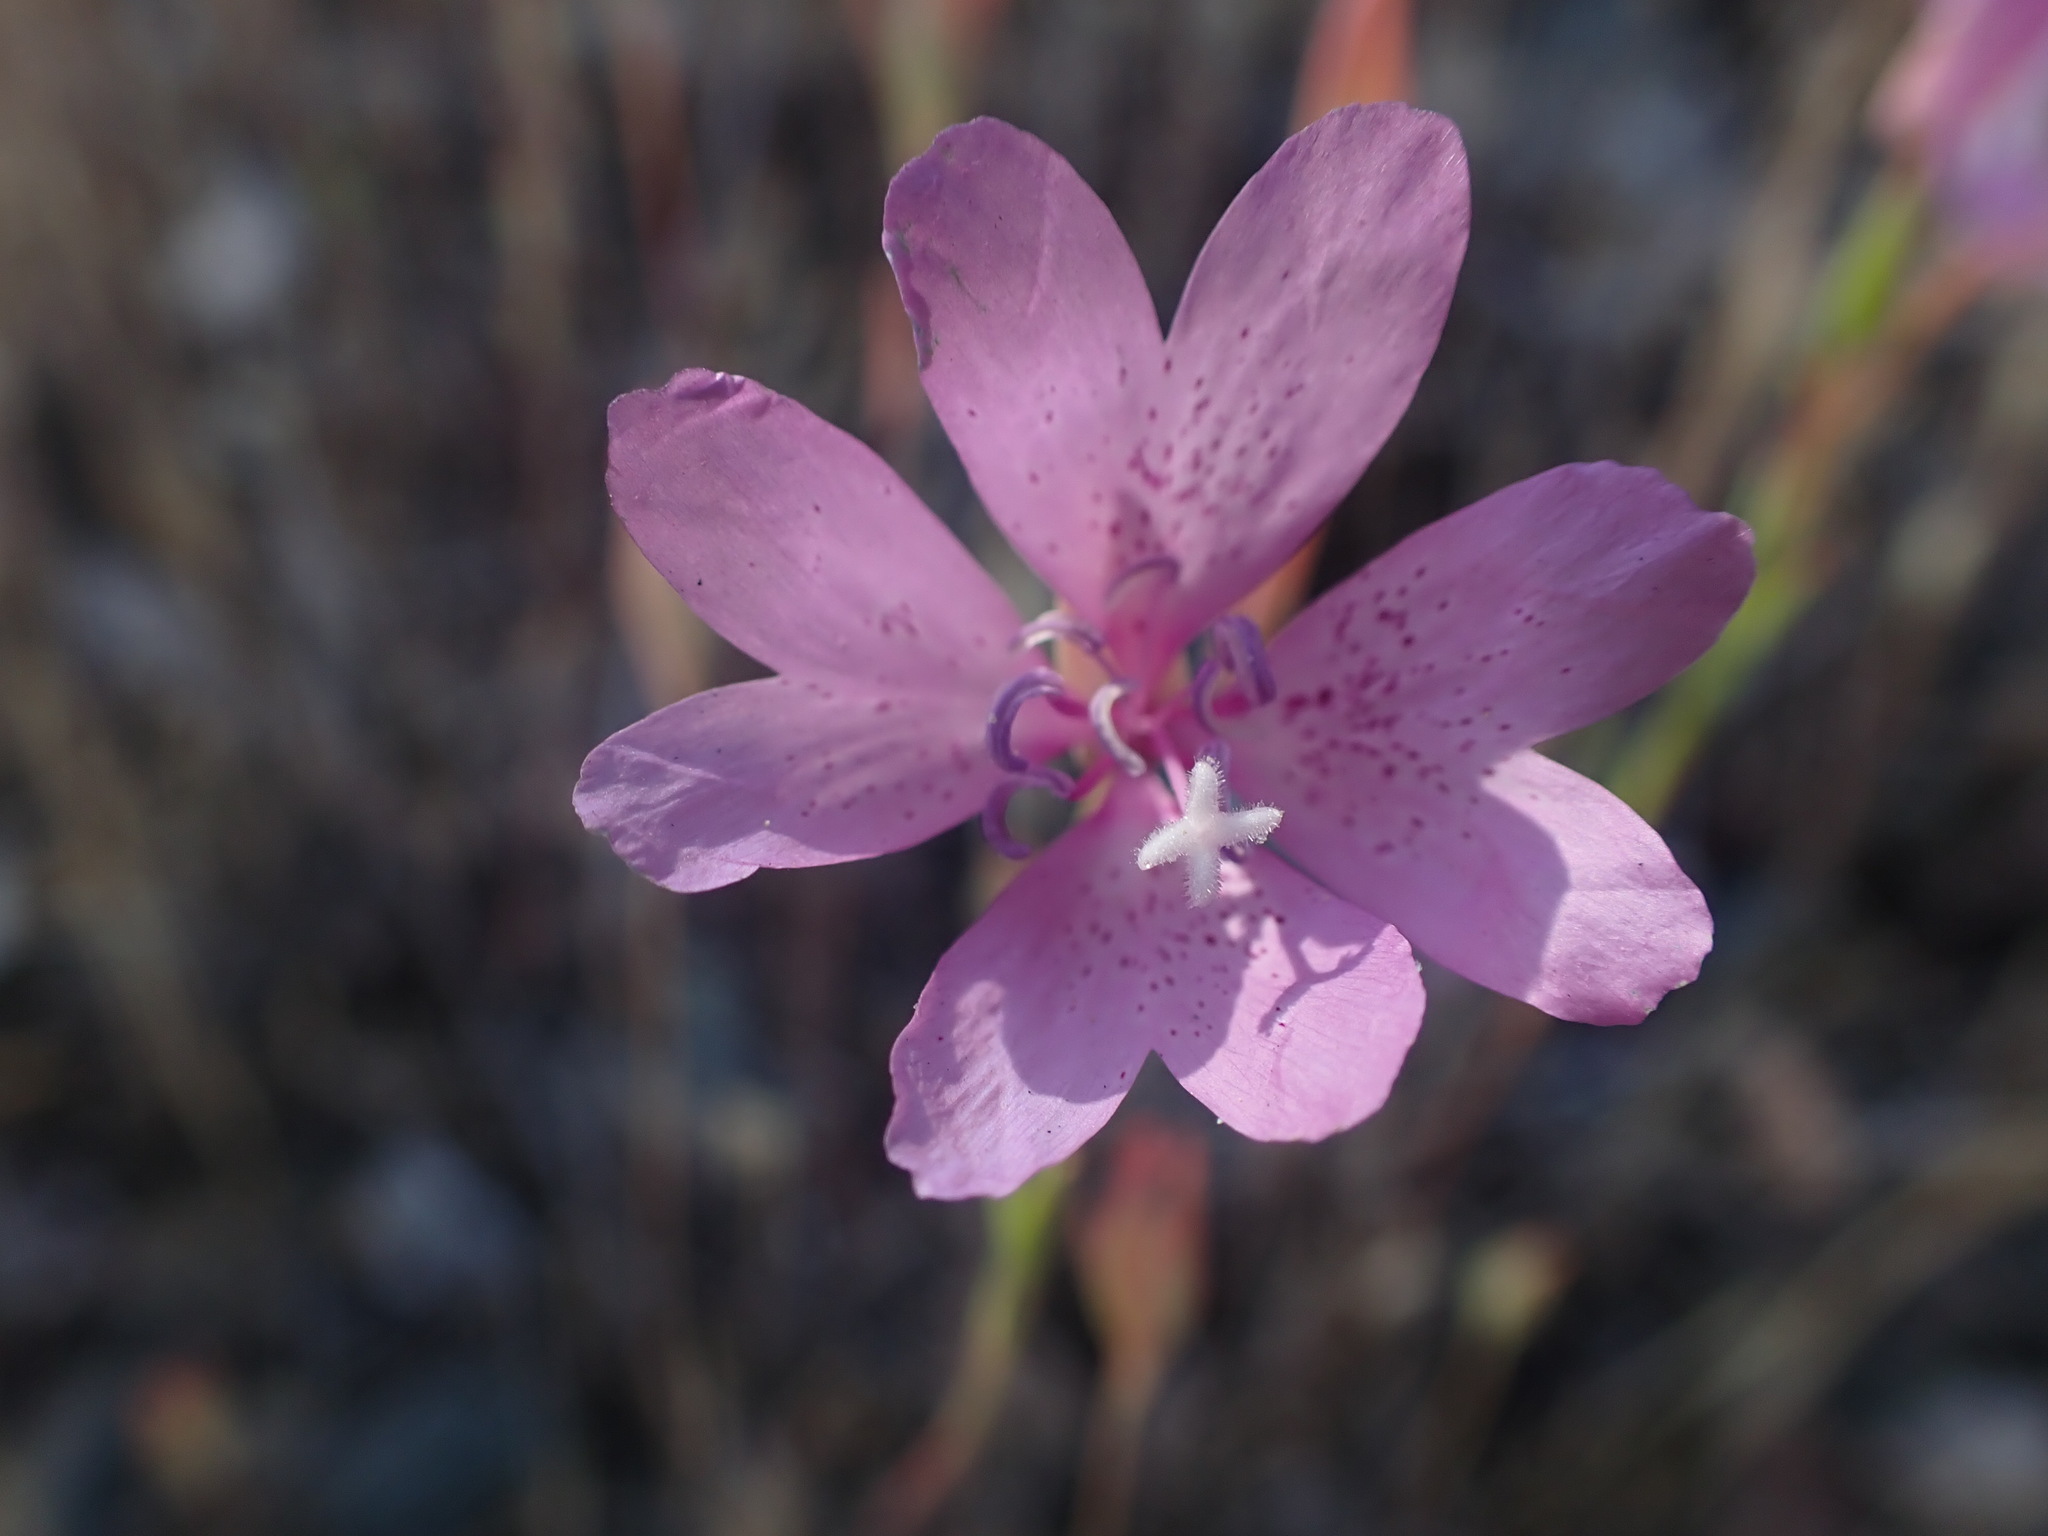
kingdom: Plantae
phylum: Tracheophyta
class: Magnoliopsida
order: Myrtales
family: Onagraceae
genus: Clarkia
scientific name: Clarkia biloba
